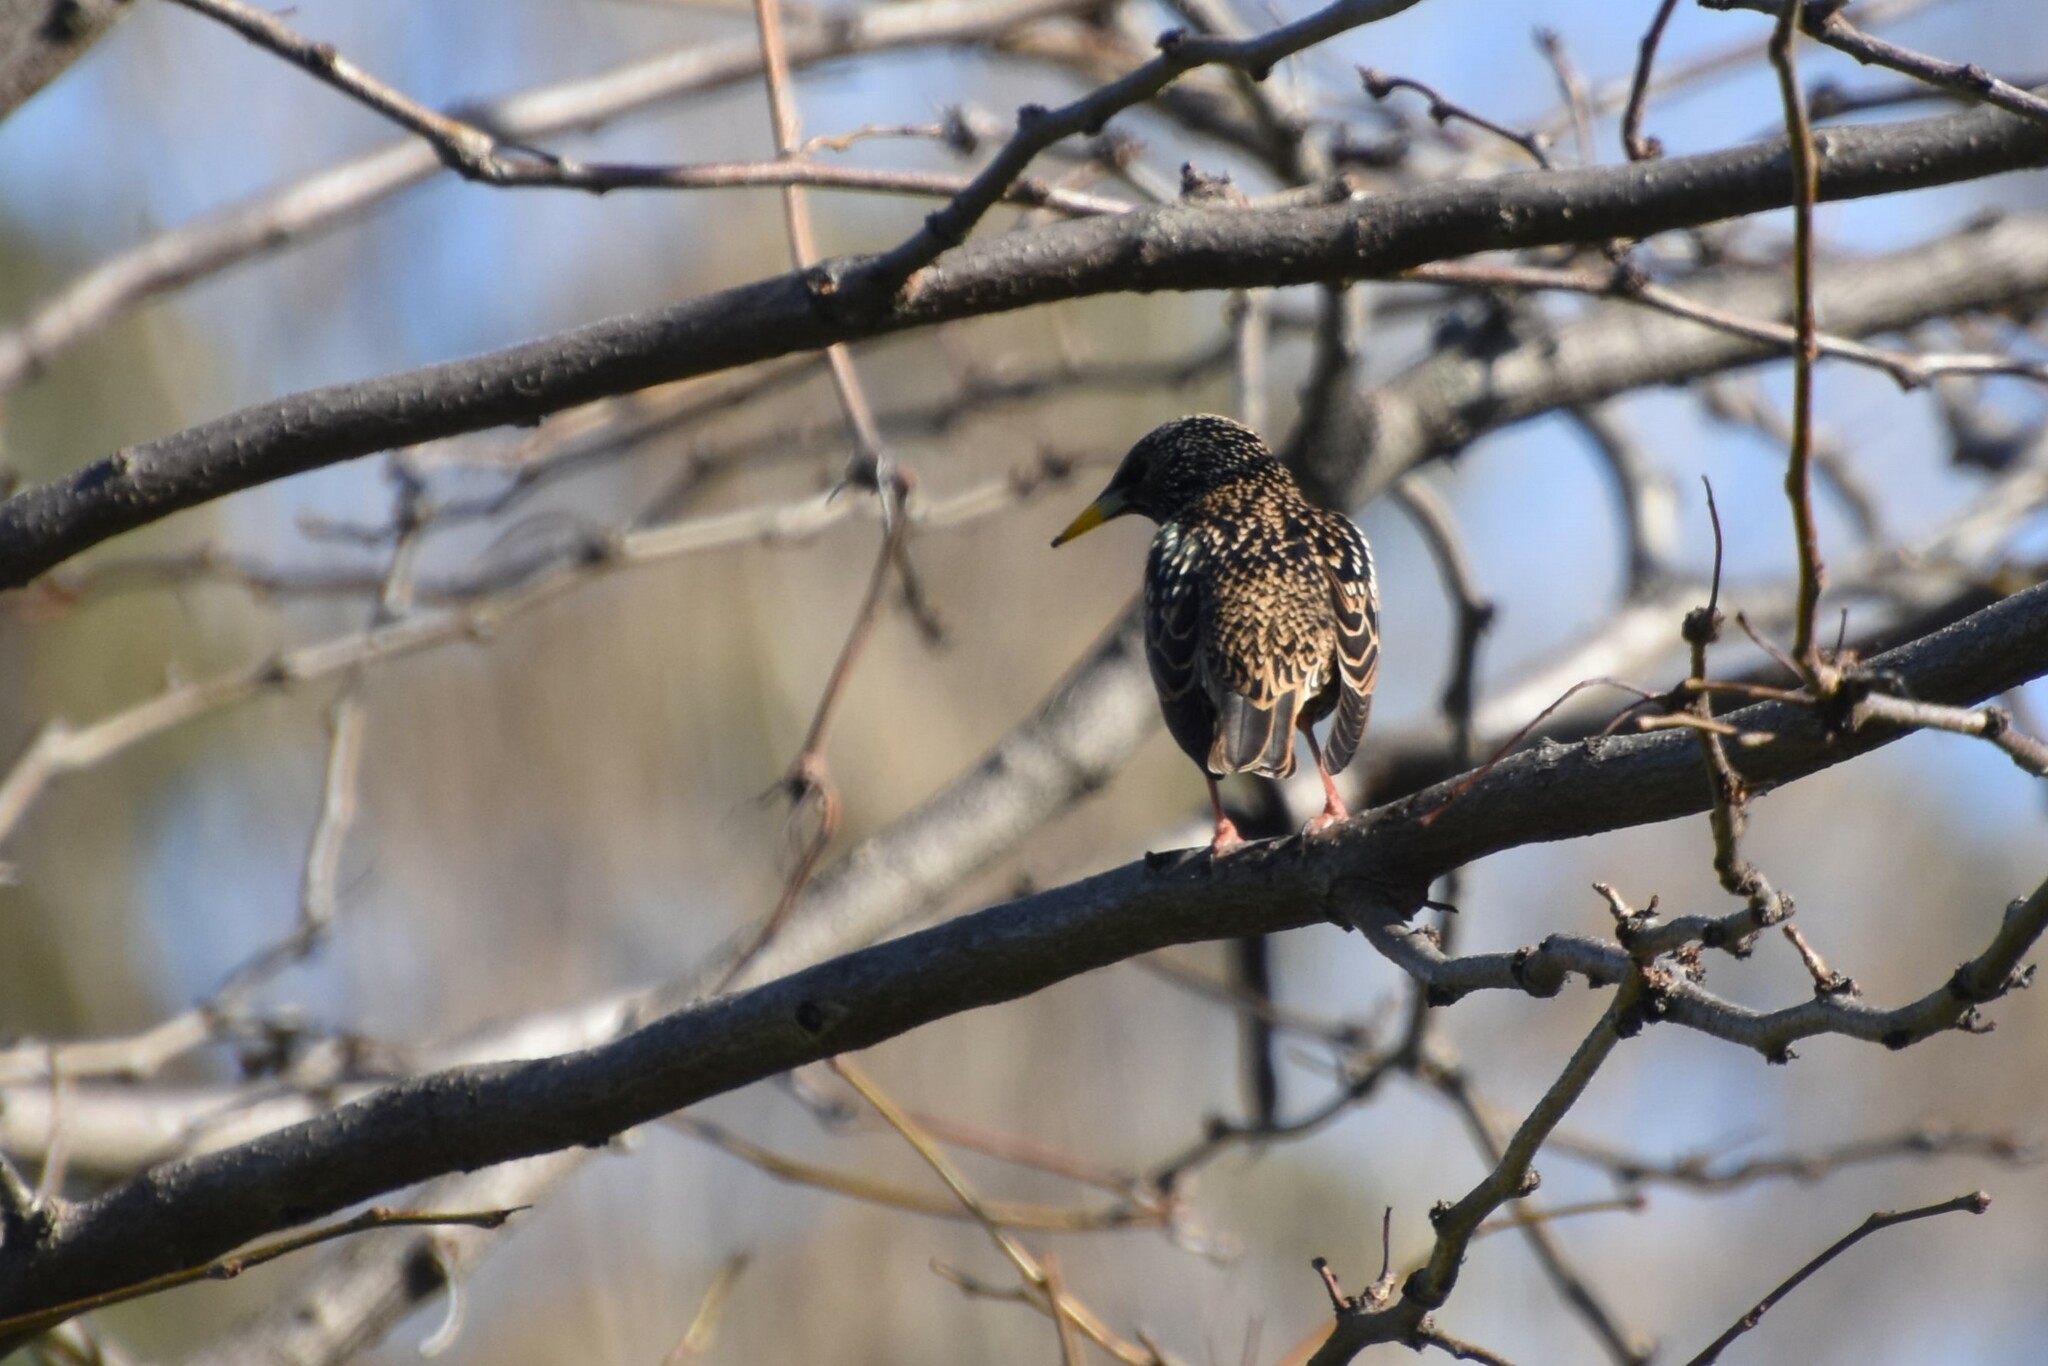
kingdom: Animalia
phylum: Chordata
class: Aves
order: Passeriformes
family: Sturnidae
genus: Sturnus
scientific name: Sturnus vulgaris
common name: Common starling
